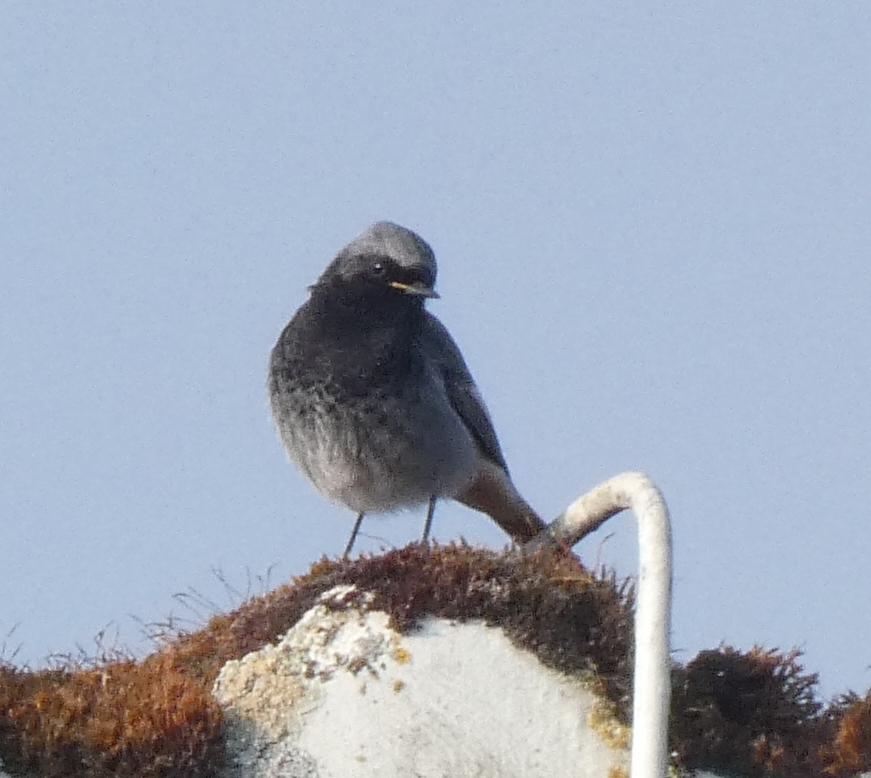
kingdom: Animalia
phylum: Chordata
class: Aves
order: Passeriformes
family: Muscicapidae
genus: Phoenicurus
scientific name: Phoenicurus ochruros
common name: Black redstart
